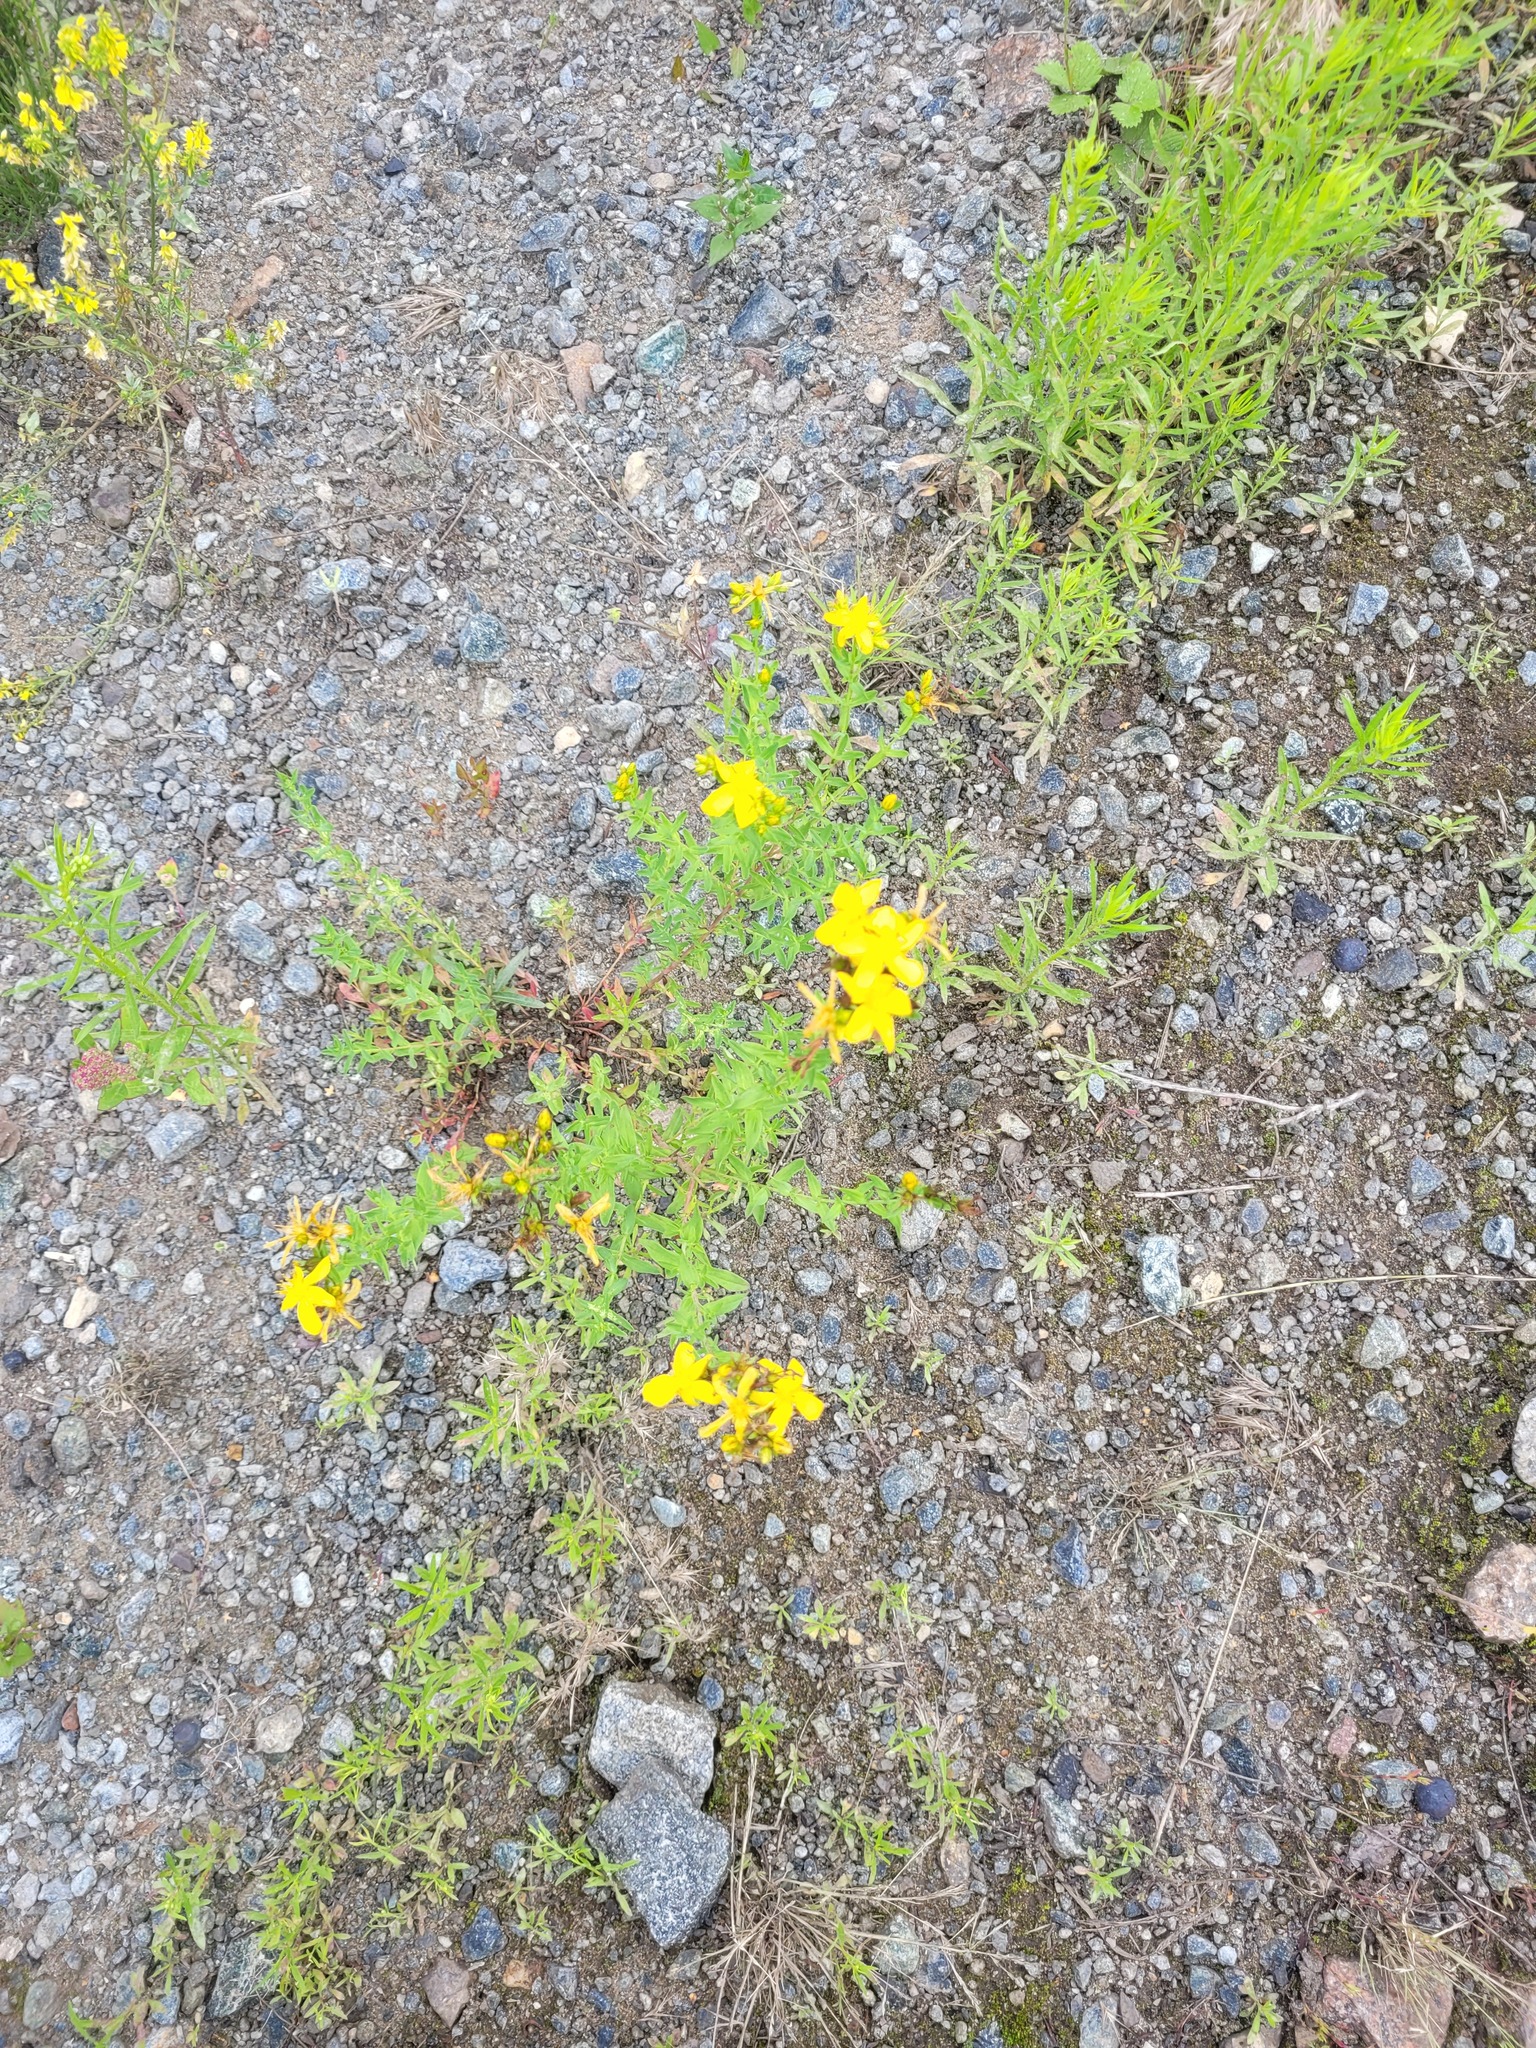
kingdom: Plantae
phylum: Tracheophyta
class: Magnoliopsida
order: Malpighiales
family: Hypericaceae
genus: Hypericum
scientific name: Hypericum perforatum
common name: Common st. johnswort
